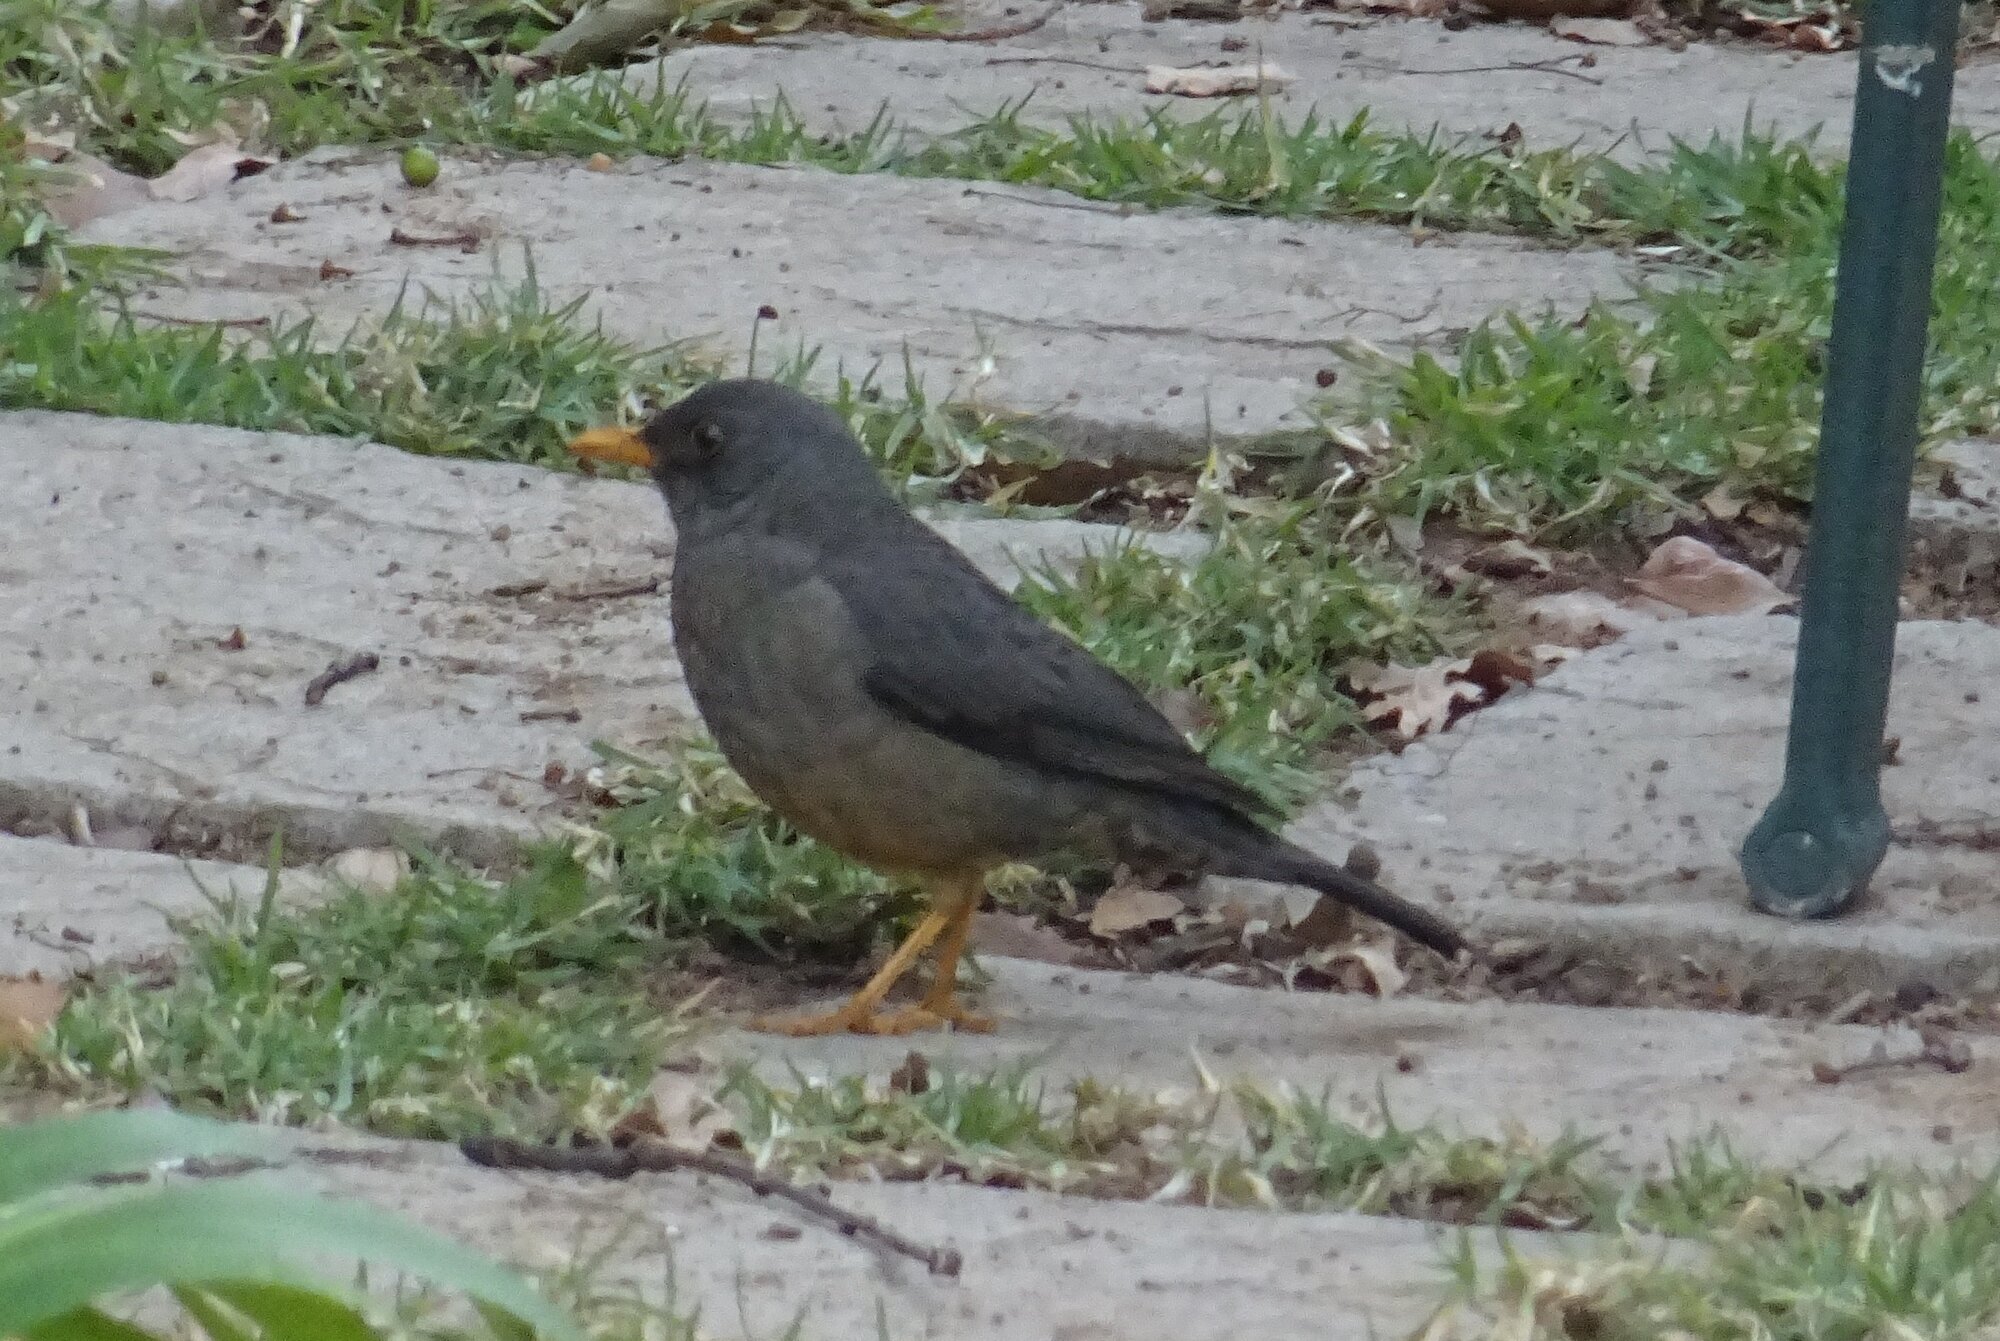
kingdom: Animalia
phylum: Chordata
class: Aves
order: Passeriformes
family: Turdidae
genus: Turdus
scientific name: Turdus smithi
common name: Karoo thrush
